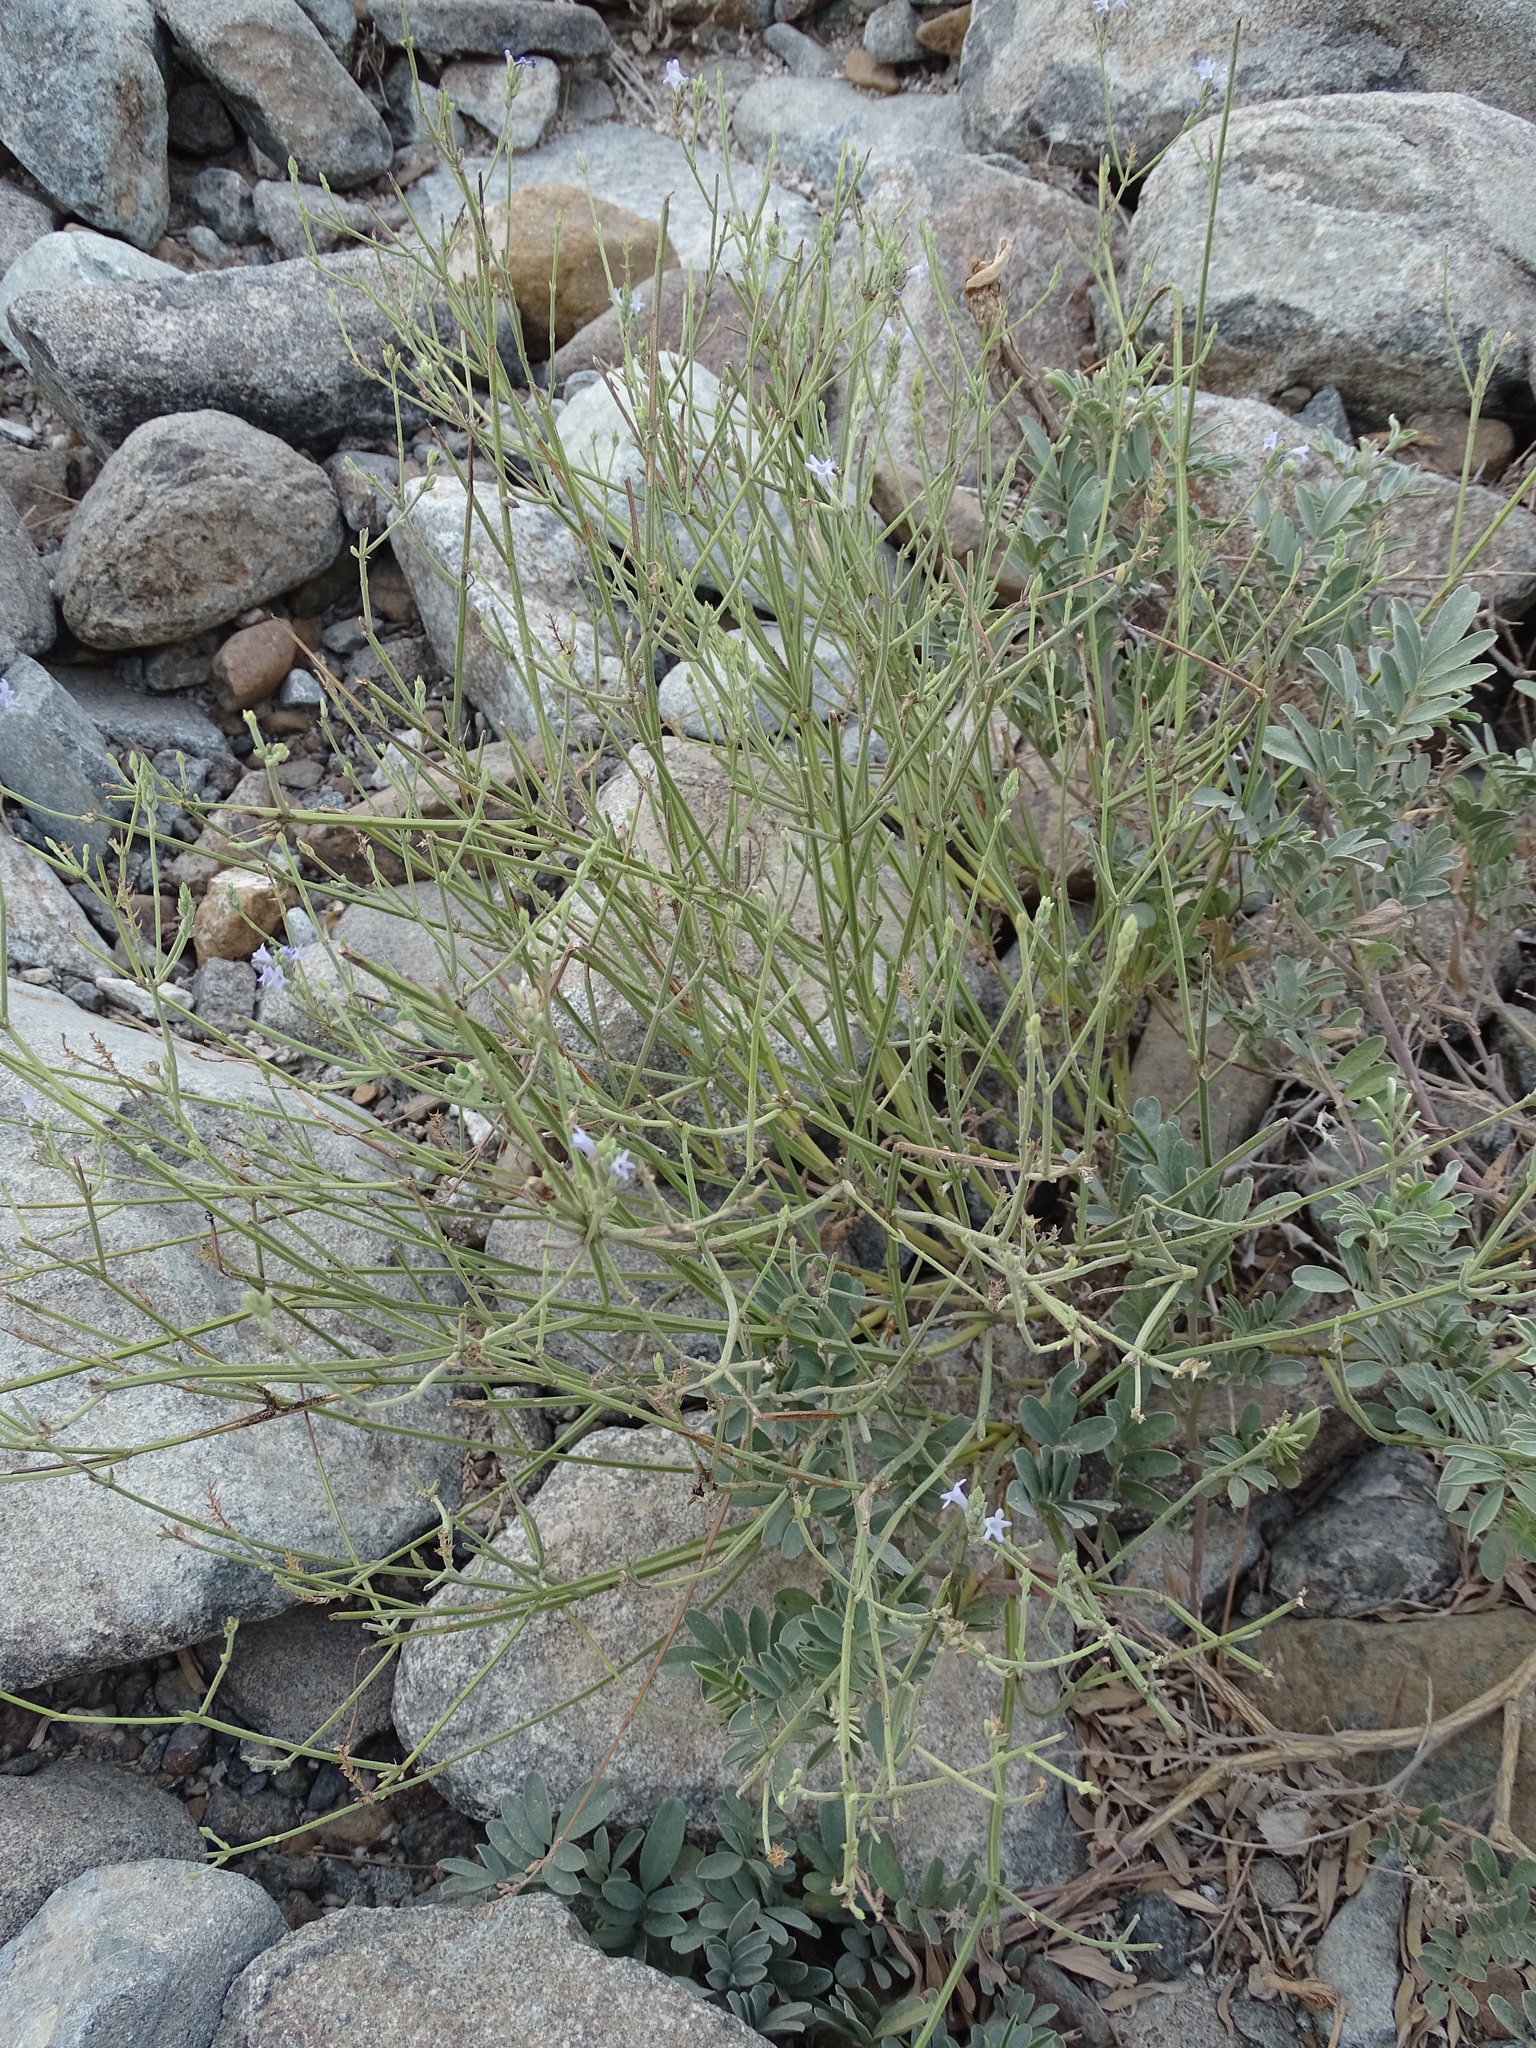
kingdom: Plantae
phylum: Tracheophyta
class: Magnoliopsida
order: Lamiales
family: Lamiaceae
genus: Lavandula
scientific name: Lavandula subnuda
